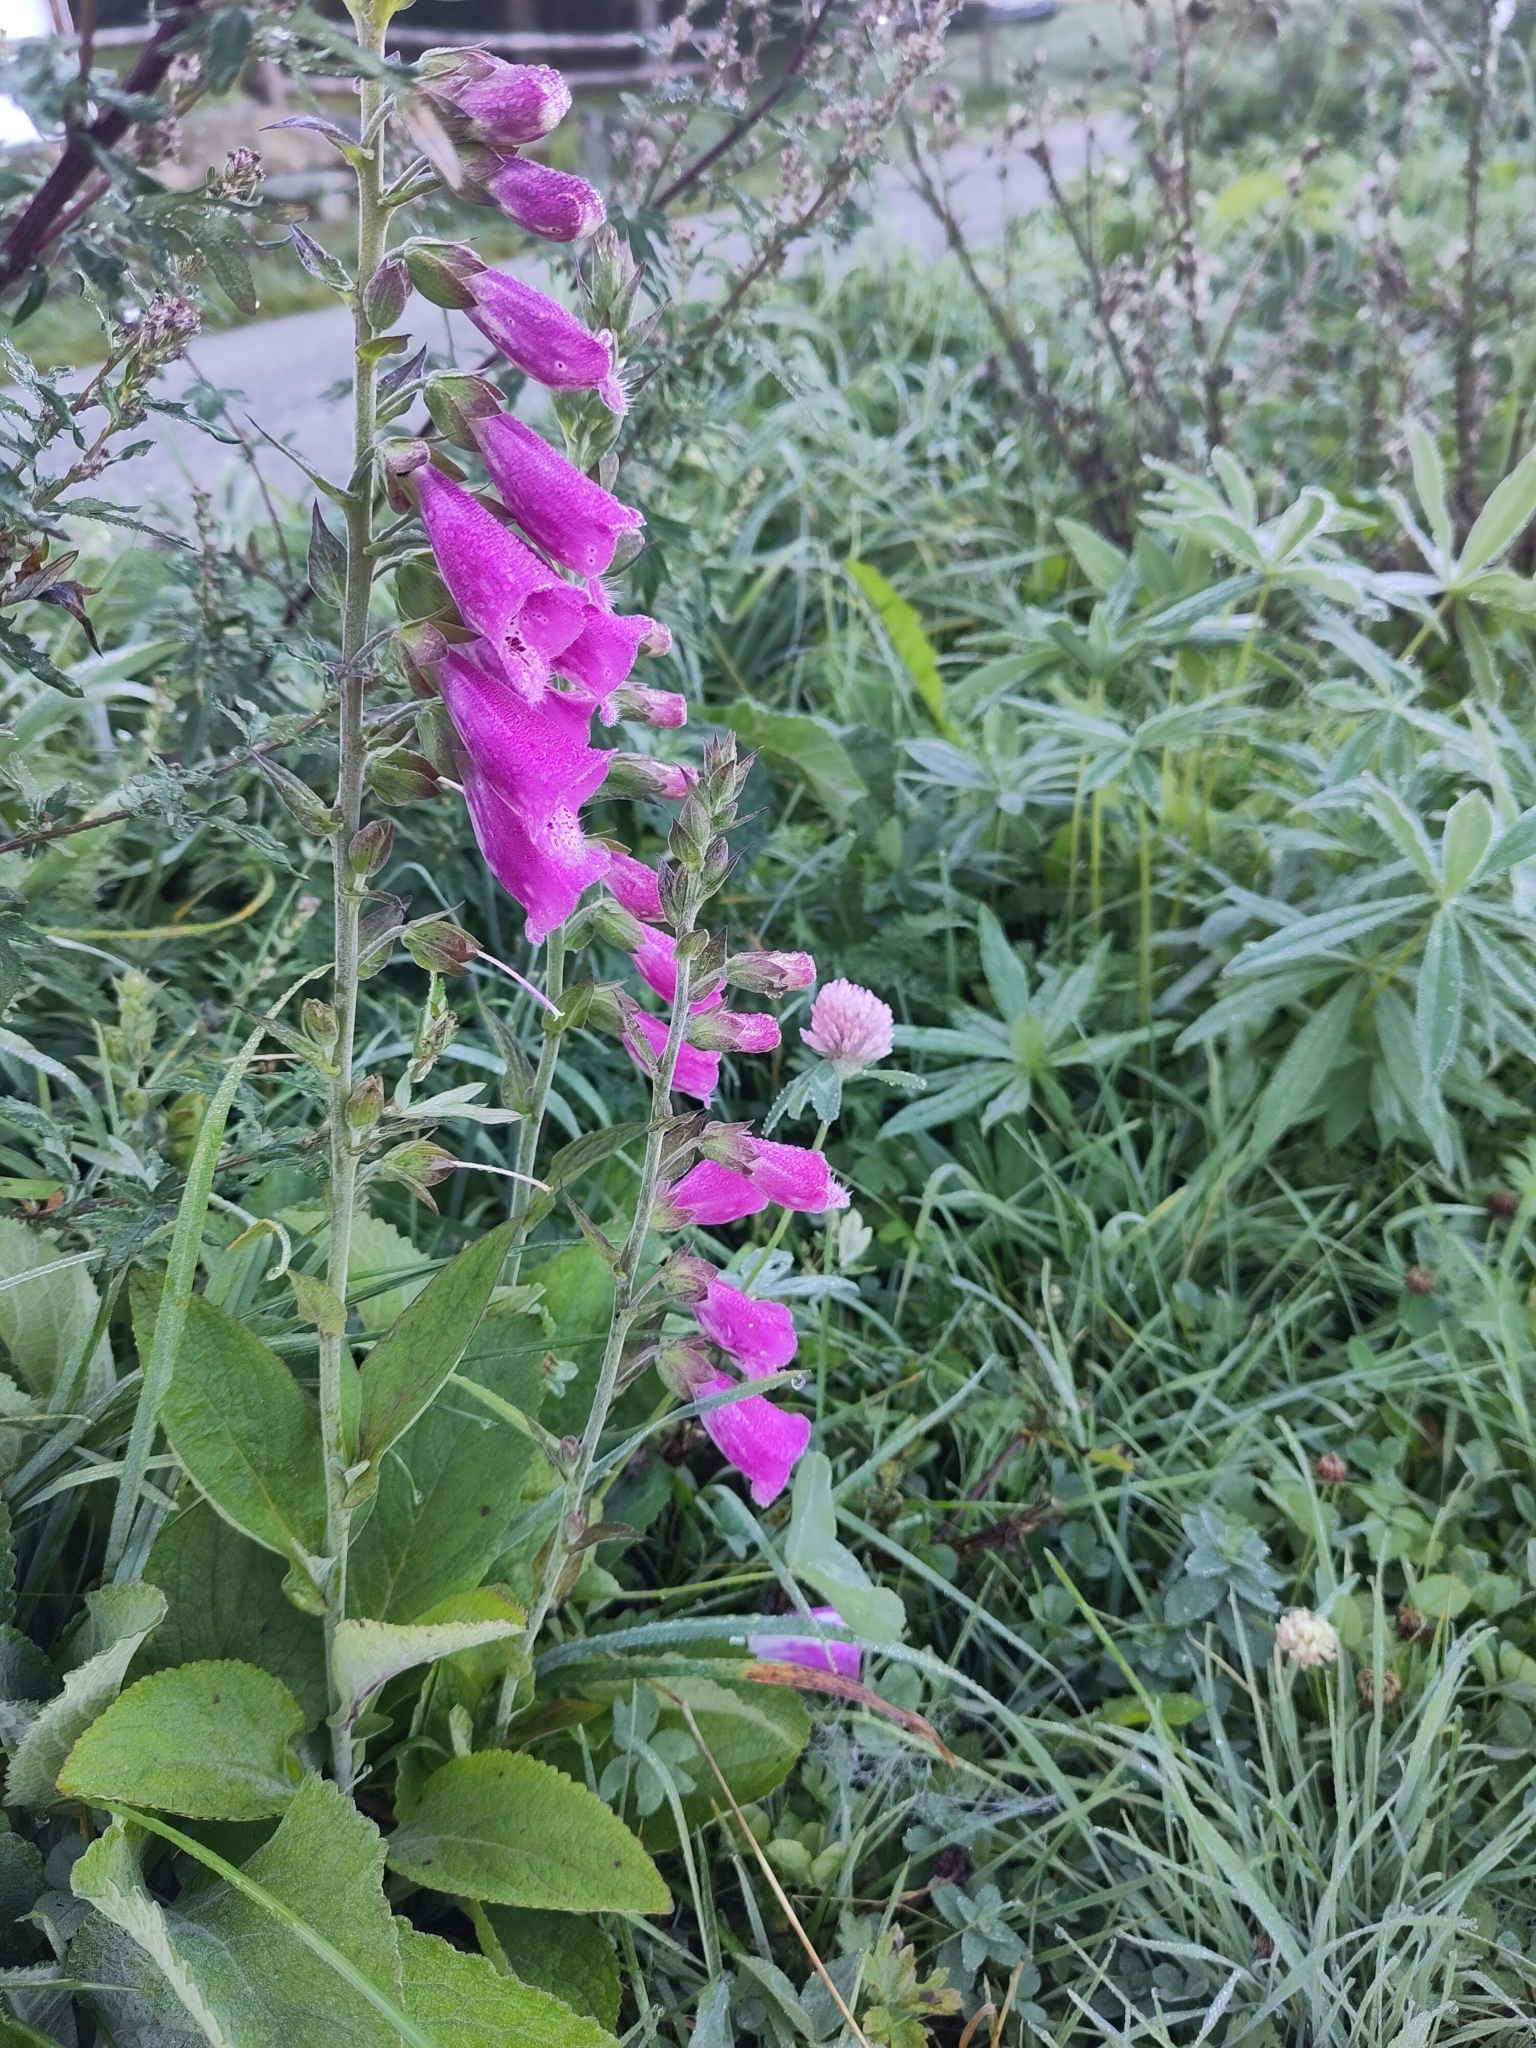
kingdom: Plantae
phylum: Tracheophyta
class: Magnoliopsida
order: Lamiales
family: Plantaginaceae
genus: Digitalis
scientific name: Digitalis purpurea
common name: Foxglove
